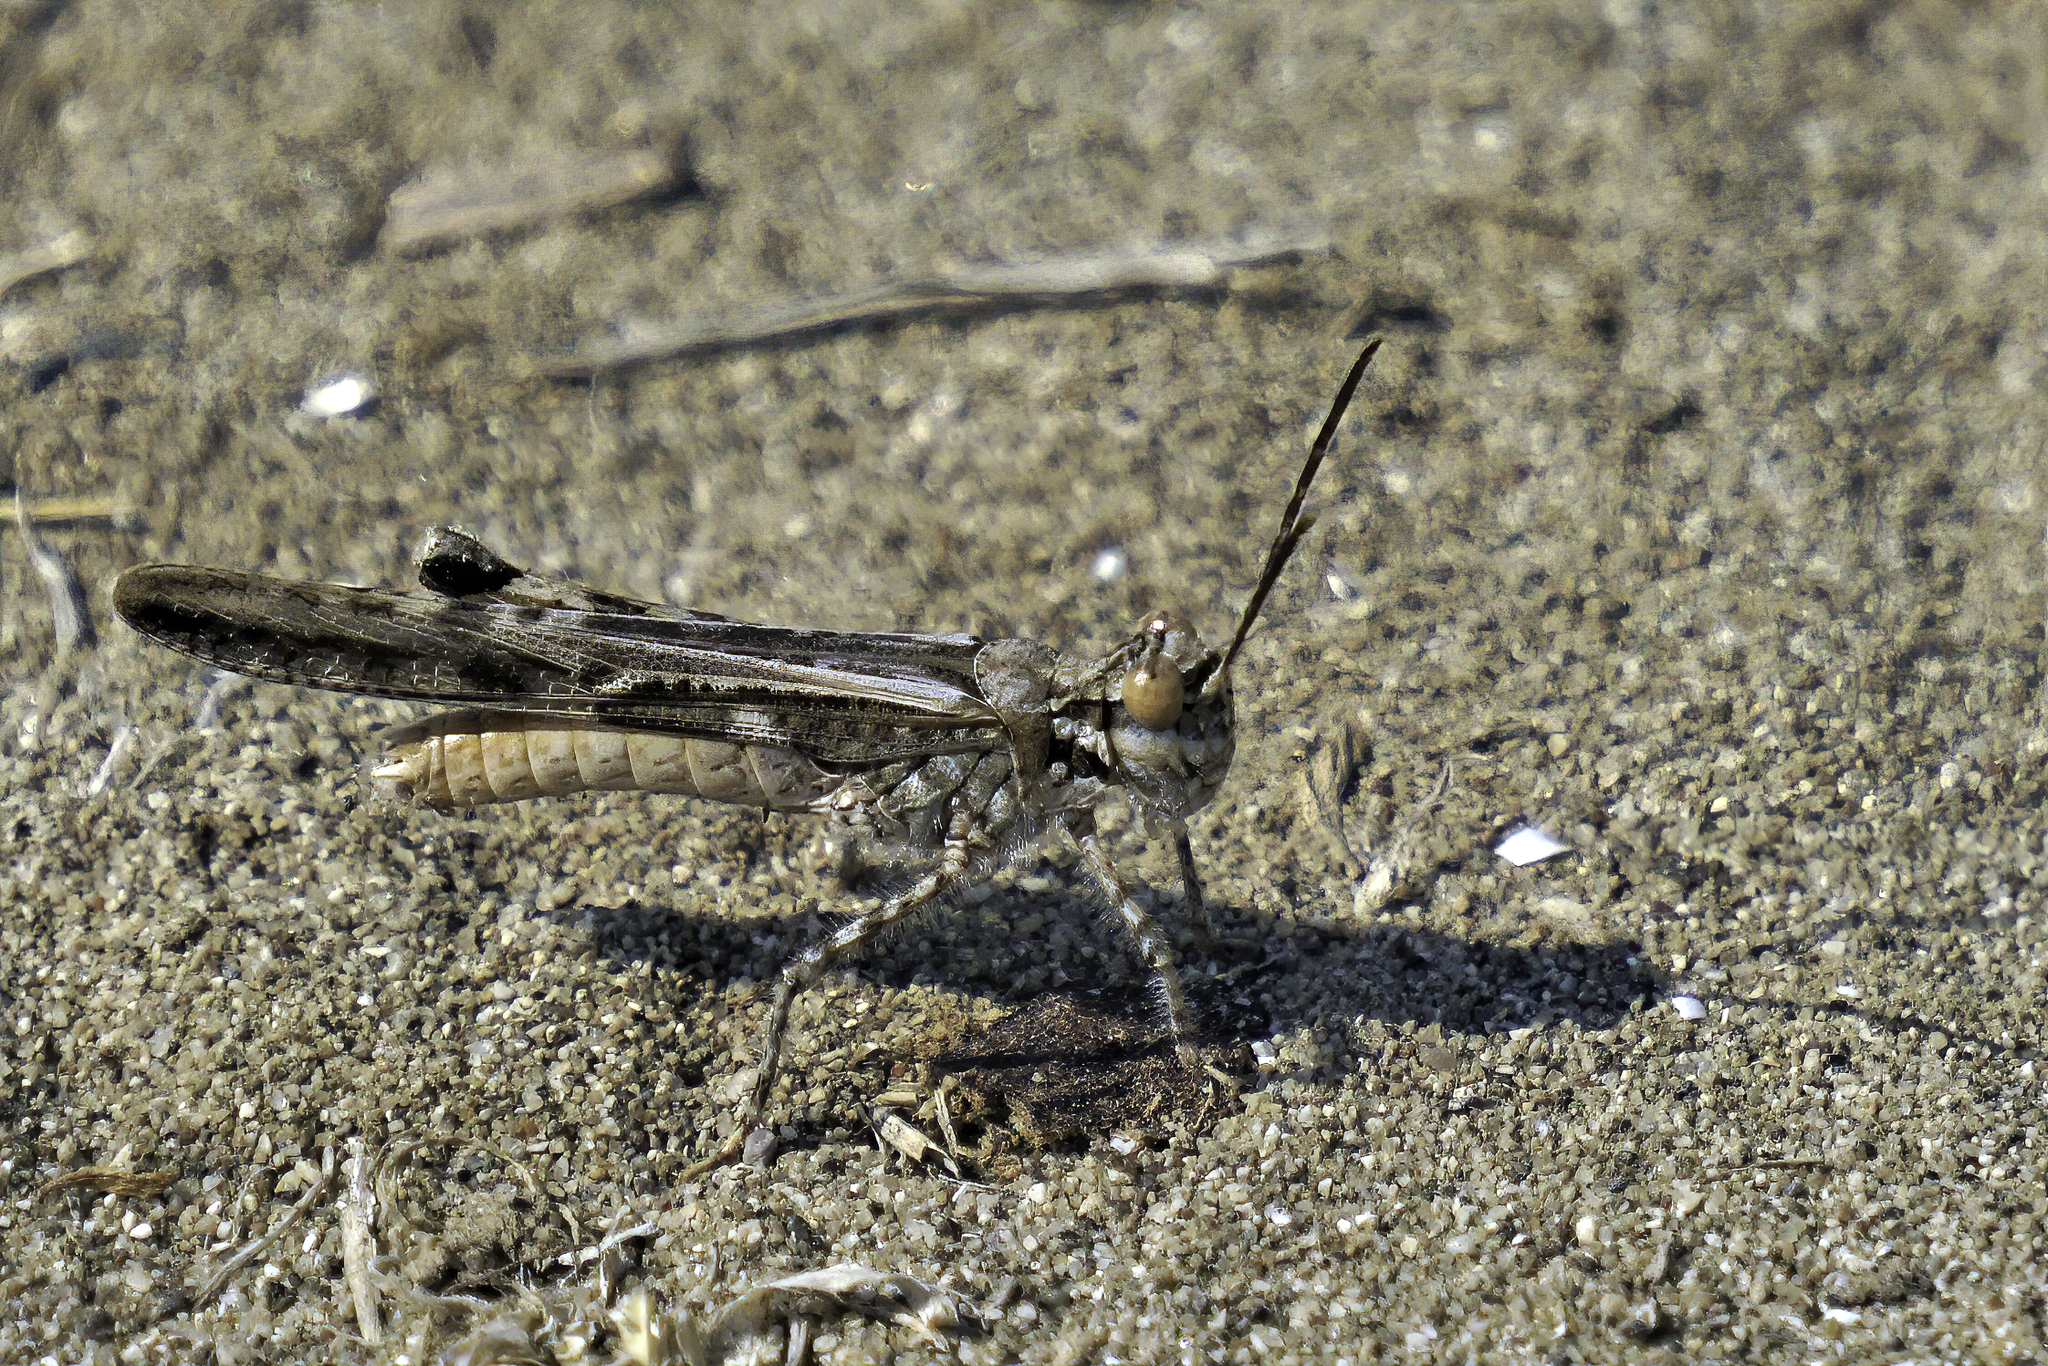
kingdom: Animalia
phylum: Arthropoda
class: Insecta
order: Orthoptera
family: Acrididae
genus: Acrotylus
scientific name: Acrotylus longipes
